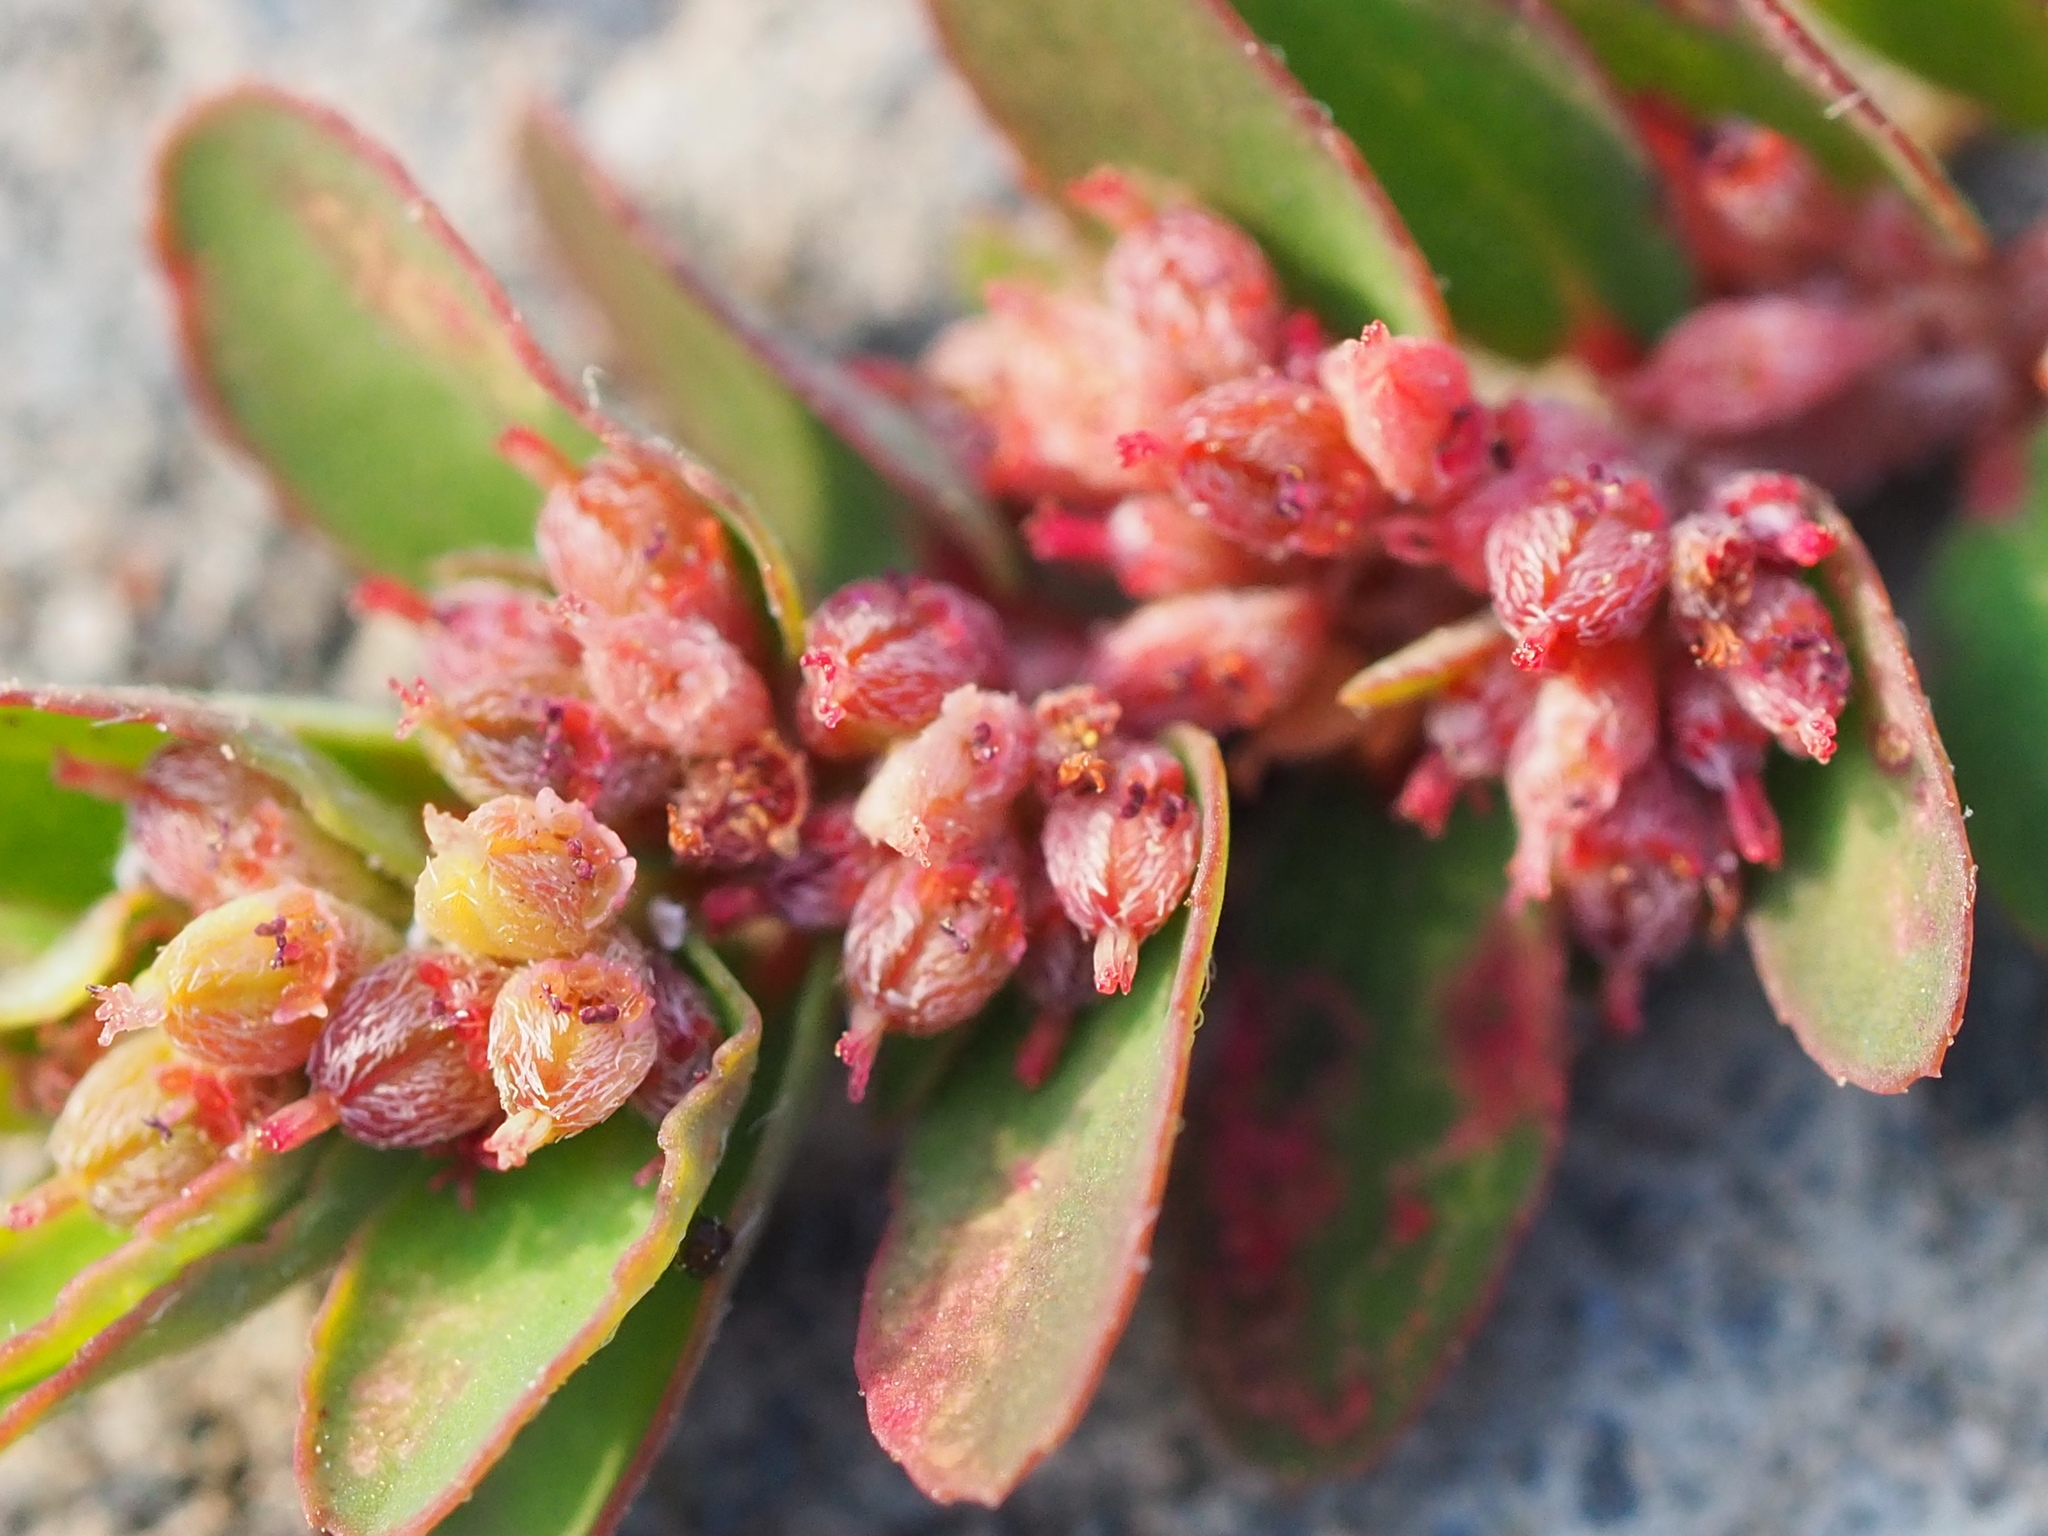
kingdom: Plantae
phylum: Tracheophyta
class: Magnoliopsida
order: Malpighiales
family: Euphorbiaceae
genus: Euphorbia
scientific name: Euphorbia thymifolia
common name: Gulf sandmat
